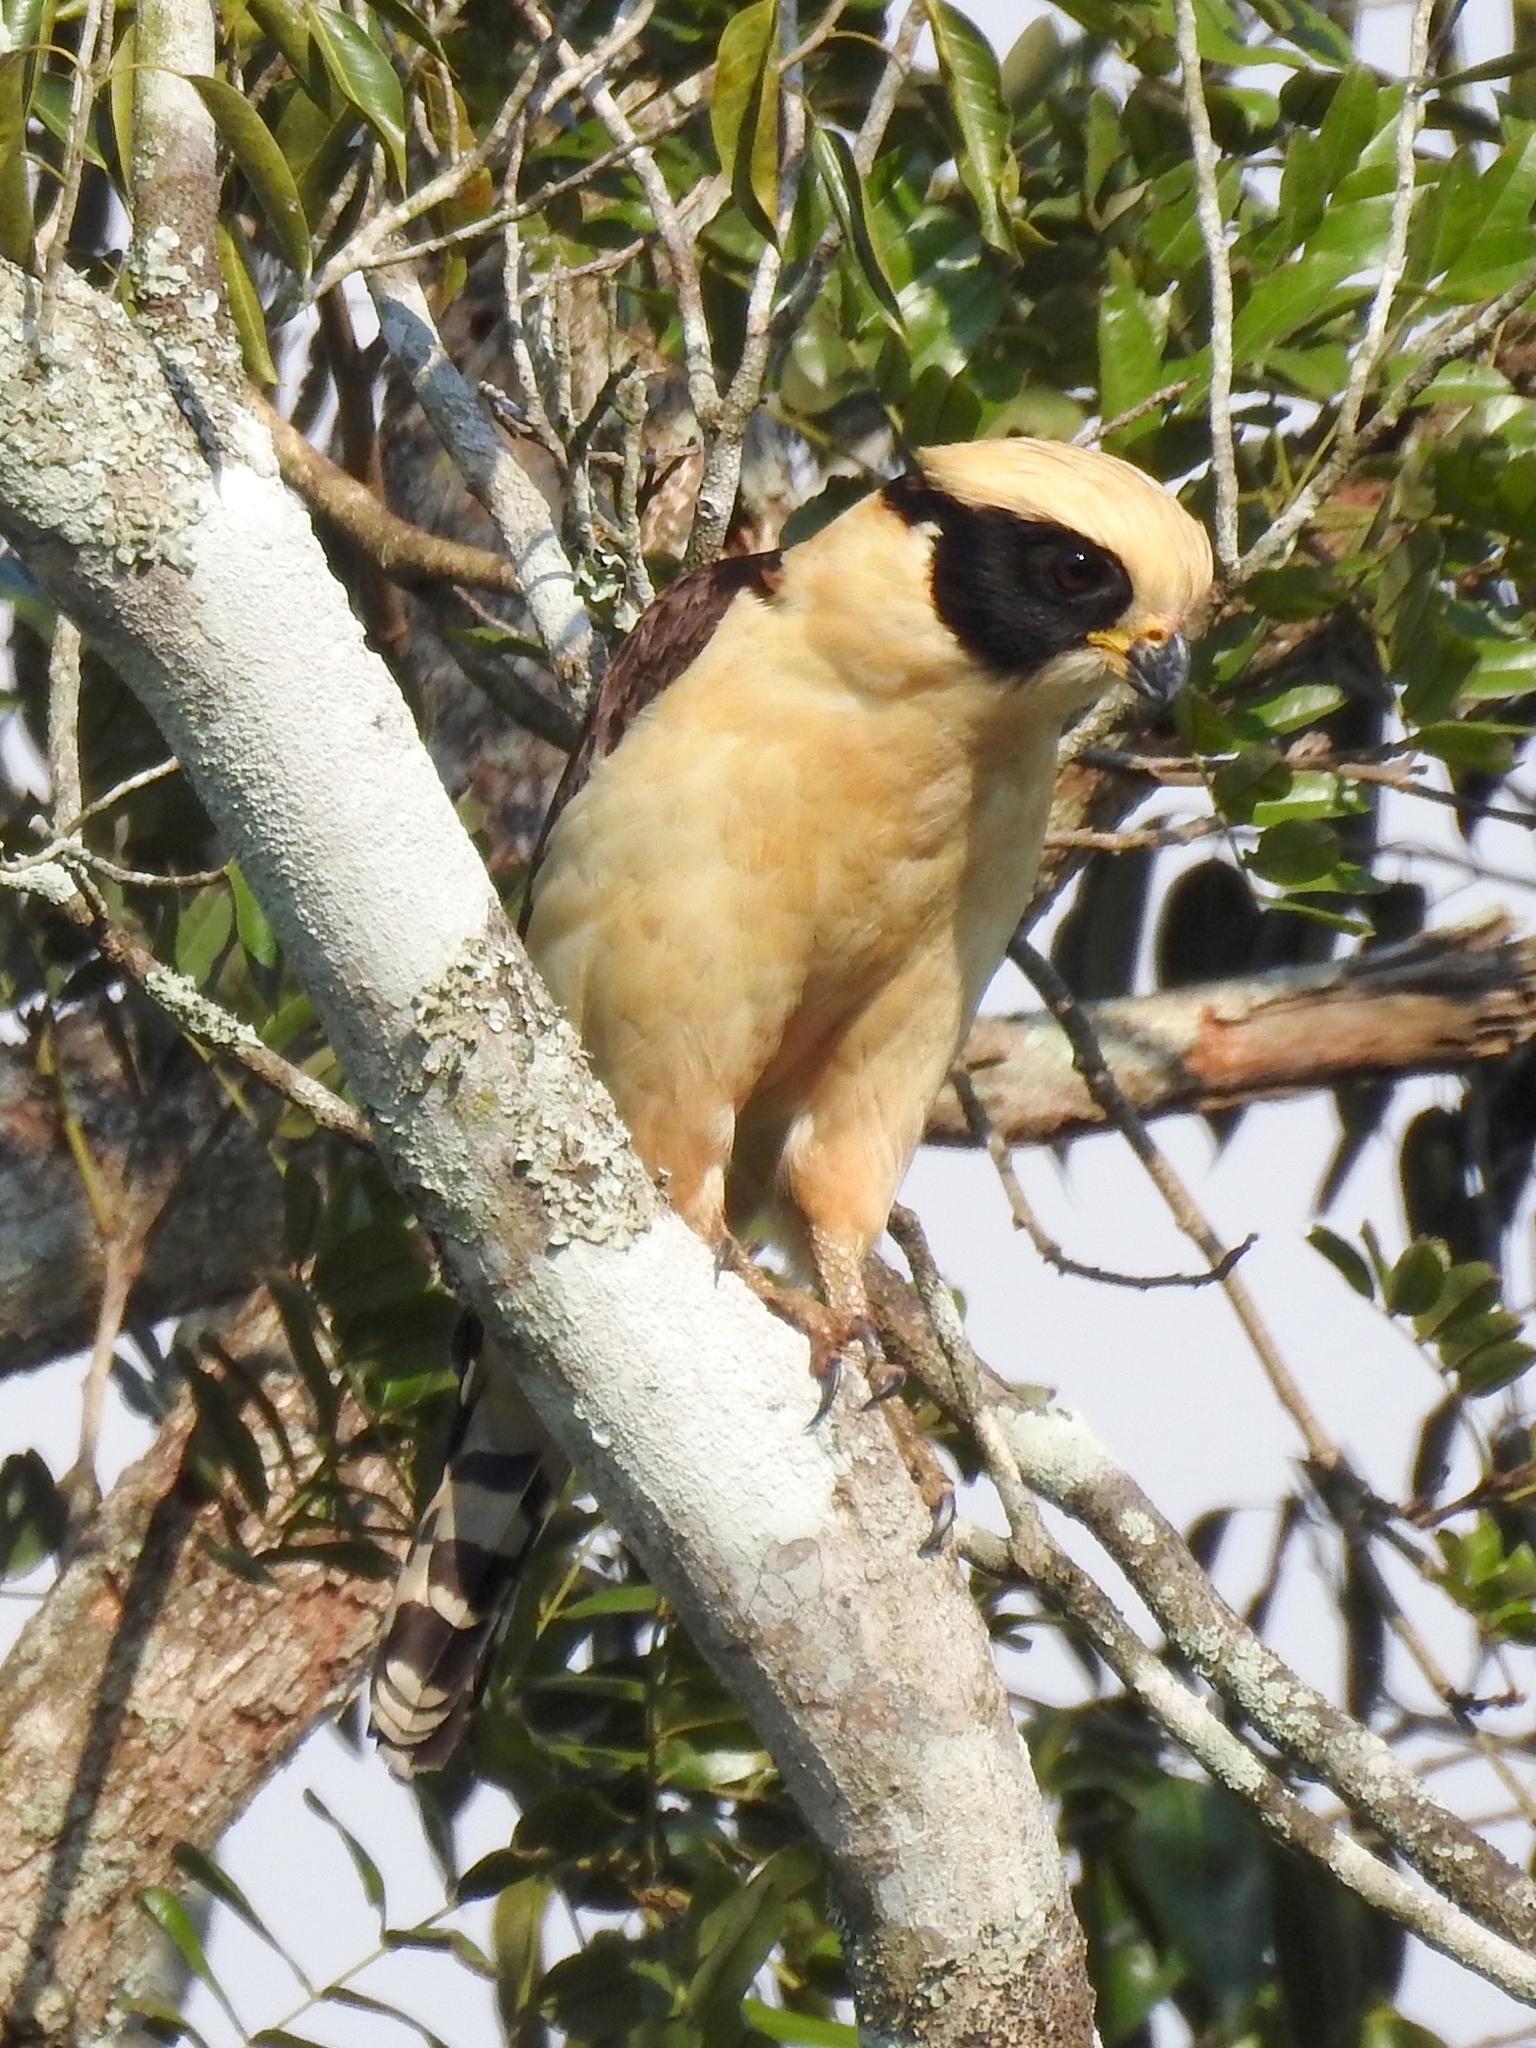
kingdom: Animalia
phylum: Chordata
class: Aves
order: Falconiformes
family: Falconidae
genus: Herpetotheres
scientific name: Herpetotheres cachinnans
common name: Laughing falcon
